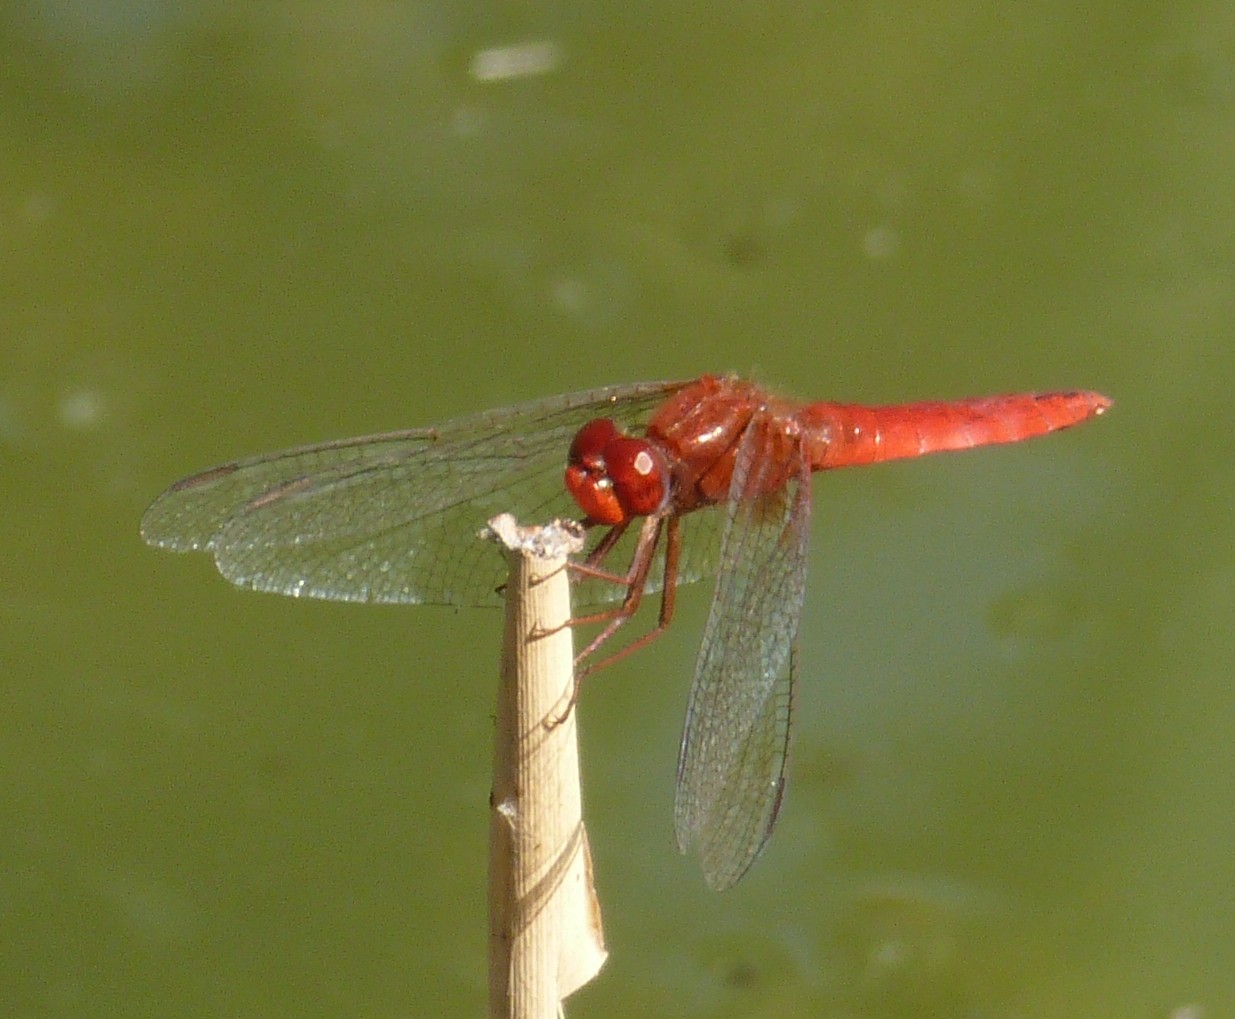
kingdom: Animalia
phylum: Arthropoda
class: Insecta
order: Odonata
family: Libellulidae
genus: Crocothemis
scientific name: Crocothemis erythraea
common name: Scarlet dragonfly
